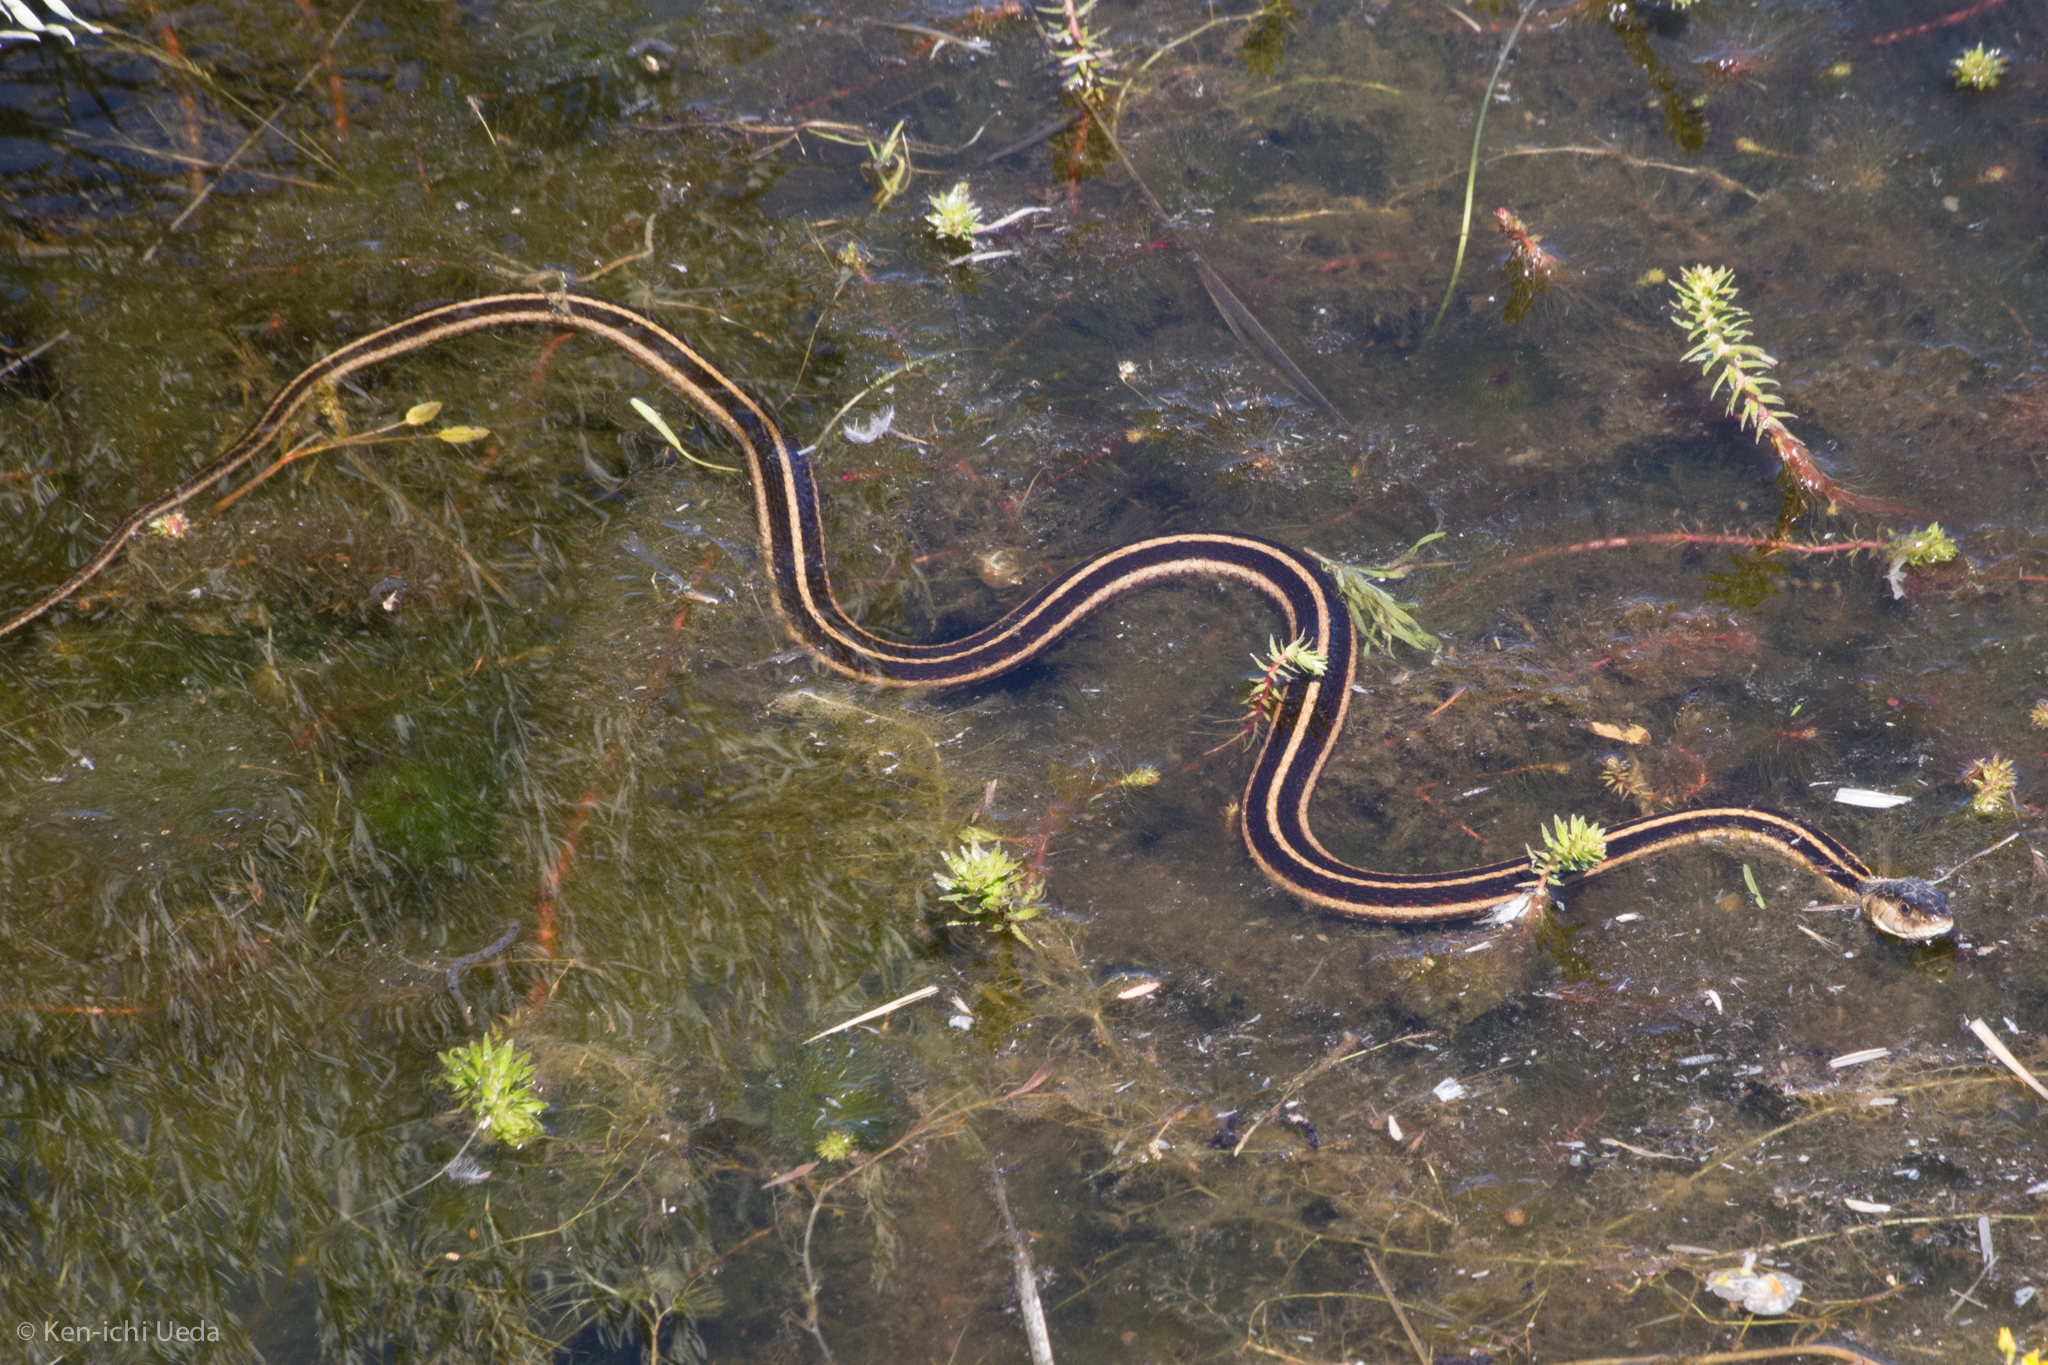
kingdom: Animalia
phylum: Chordata
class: Squamata
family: Colubridae
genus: Thamnophis
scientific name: Thamnophis sirtalis
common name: Common garter snake
